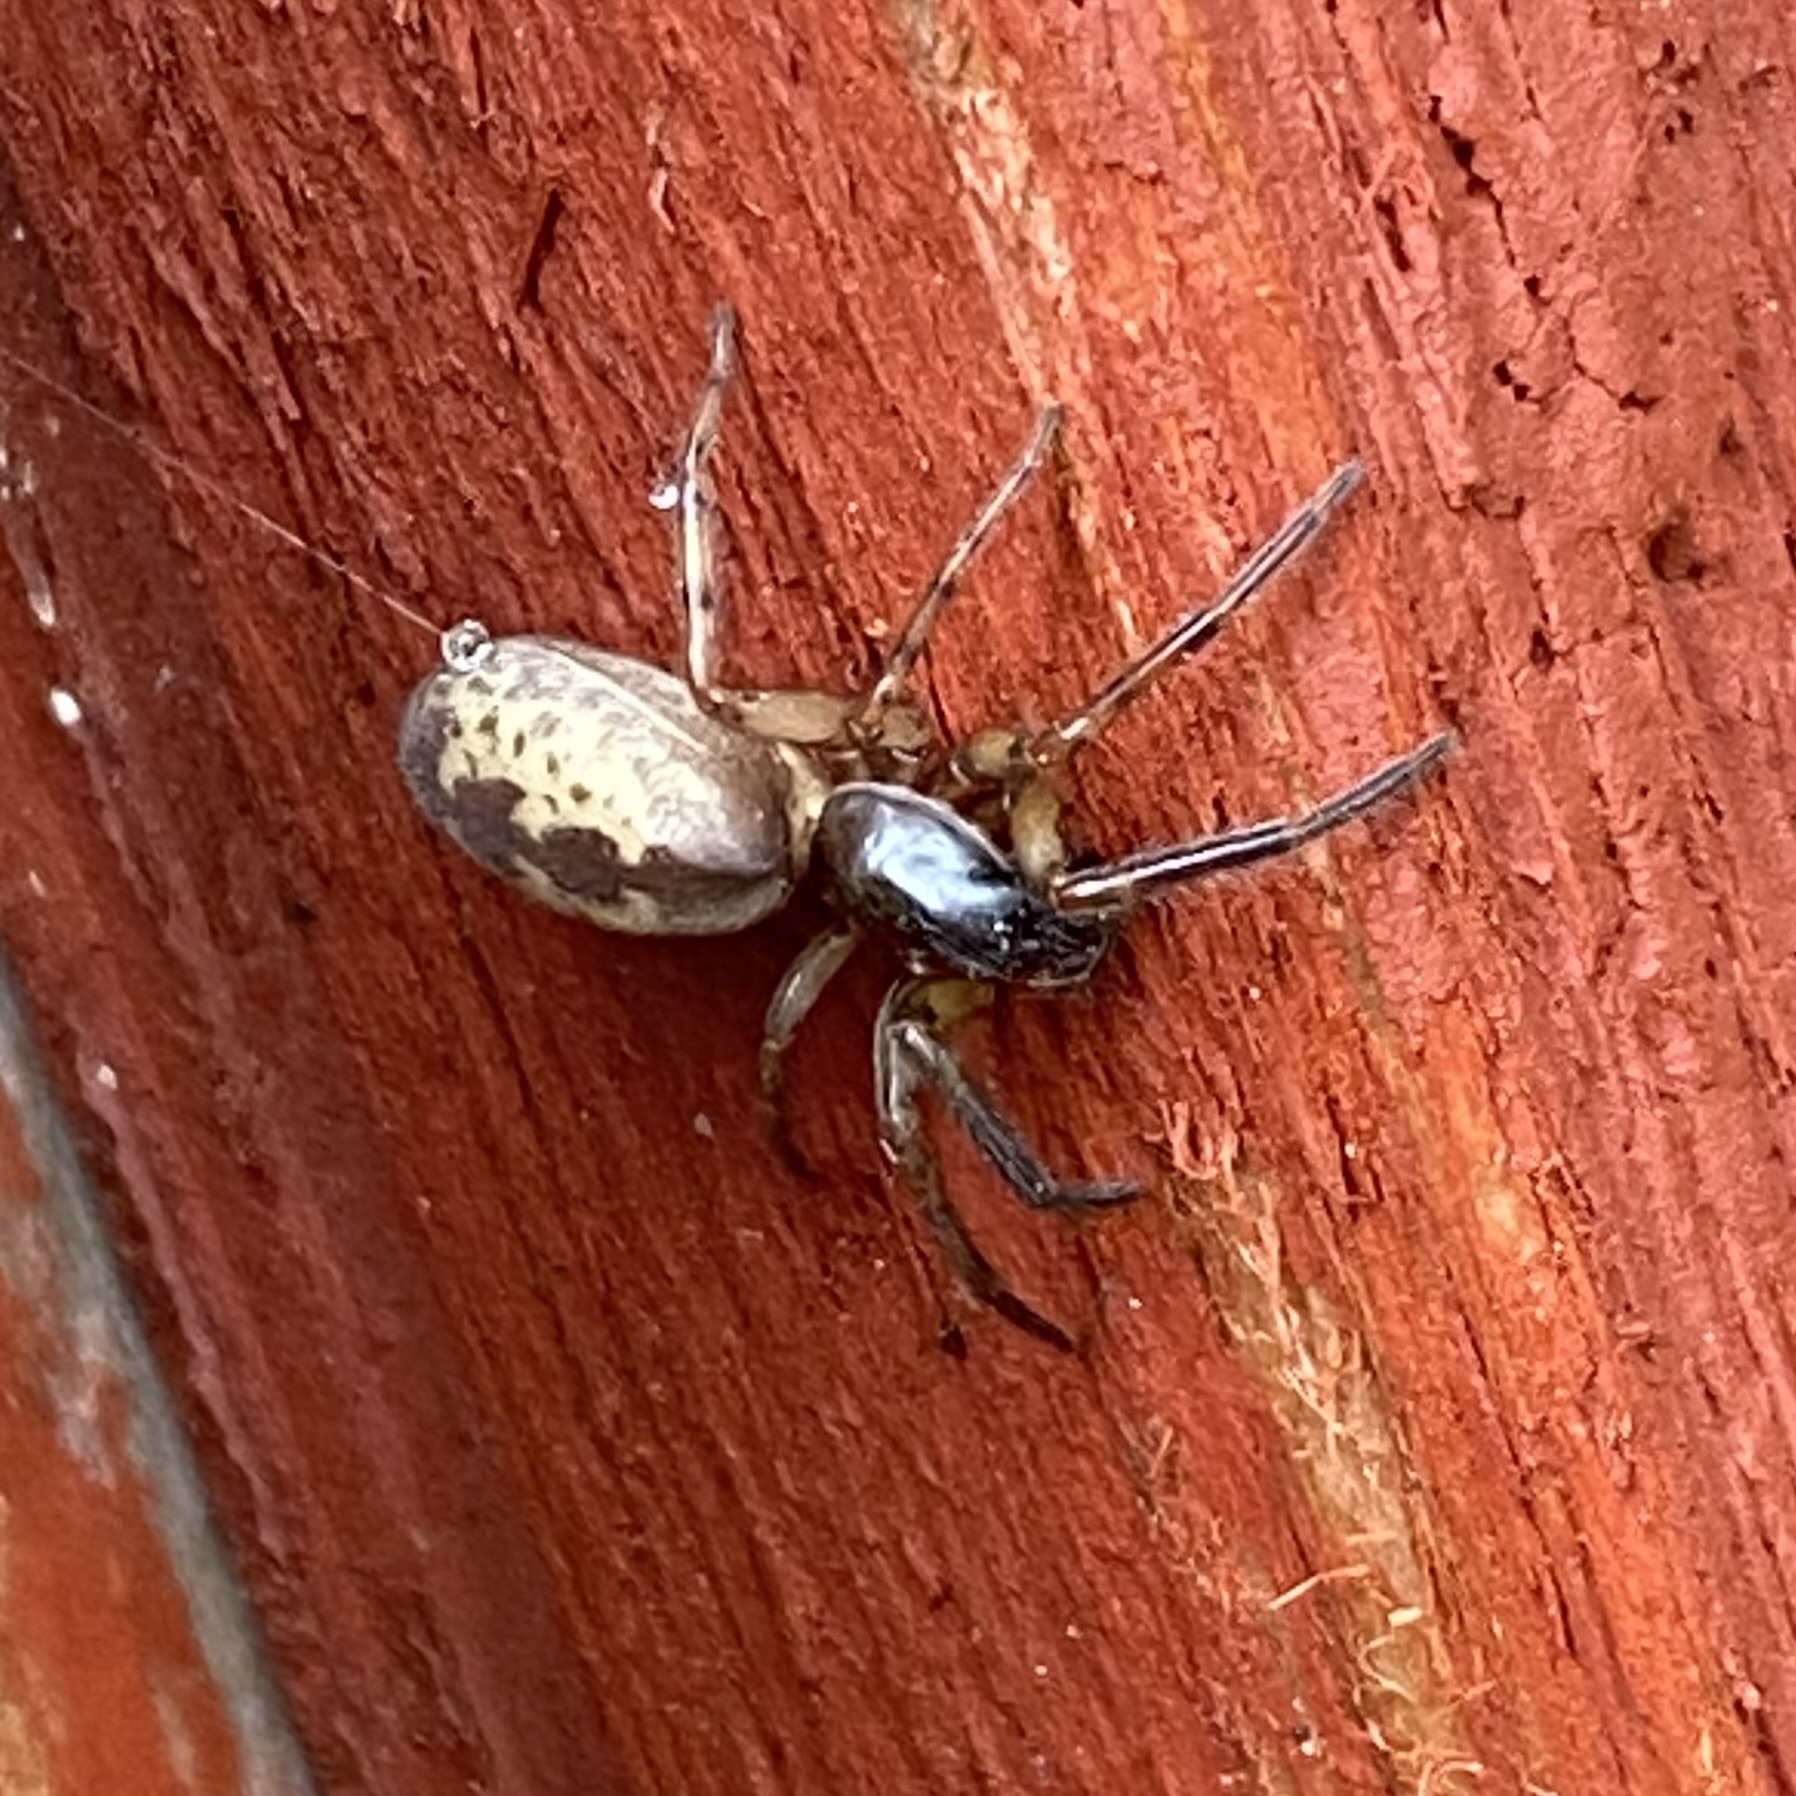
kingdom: Animalia
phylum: Arthropoda
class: Arachnida
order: Araneae
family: Segestriidae
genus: Segestria
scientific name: Segestria senoculata
